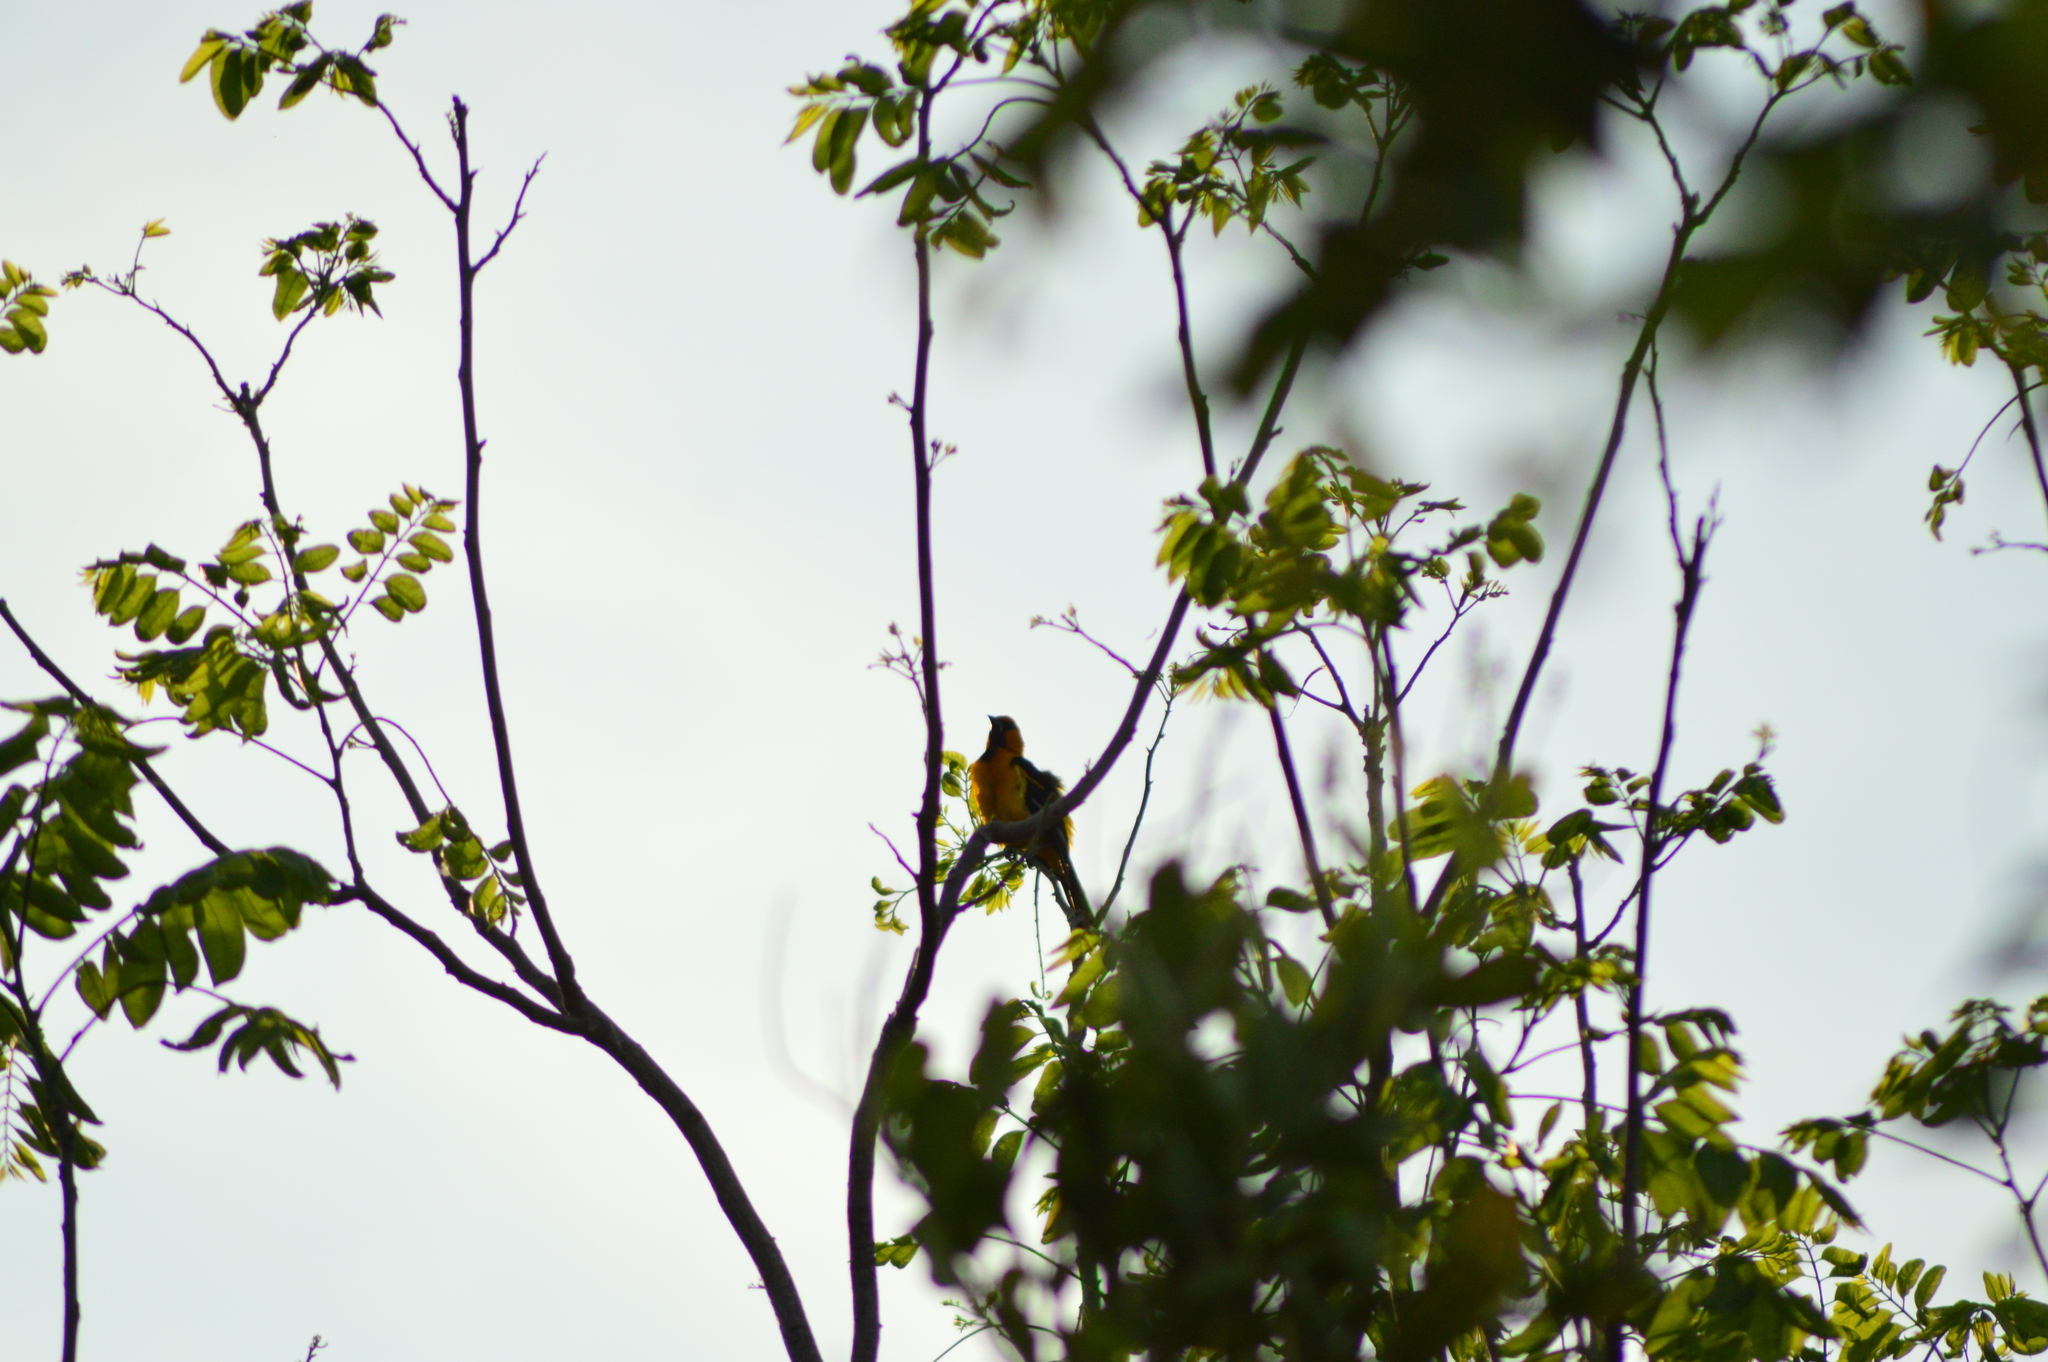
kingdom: Animalia
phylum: Chordata
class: Aves
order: Passeriformes
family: Icteridae
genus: Icterus
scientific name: Icterus gularis
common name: Altamira oriole
